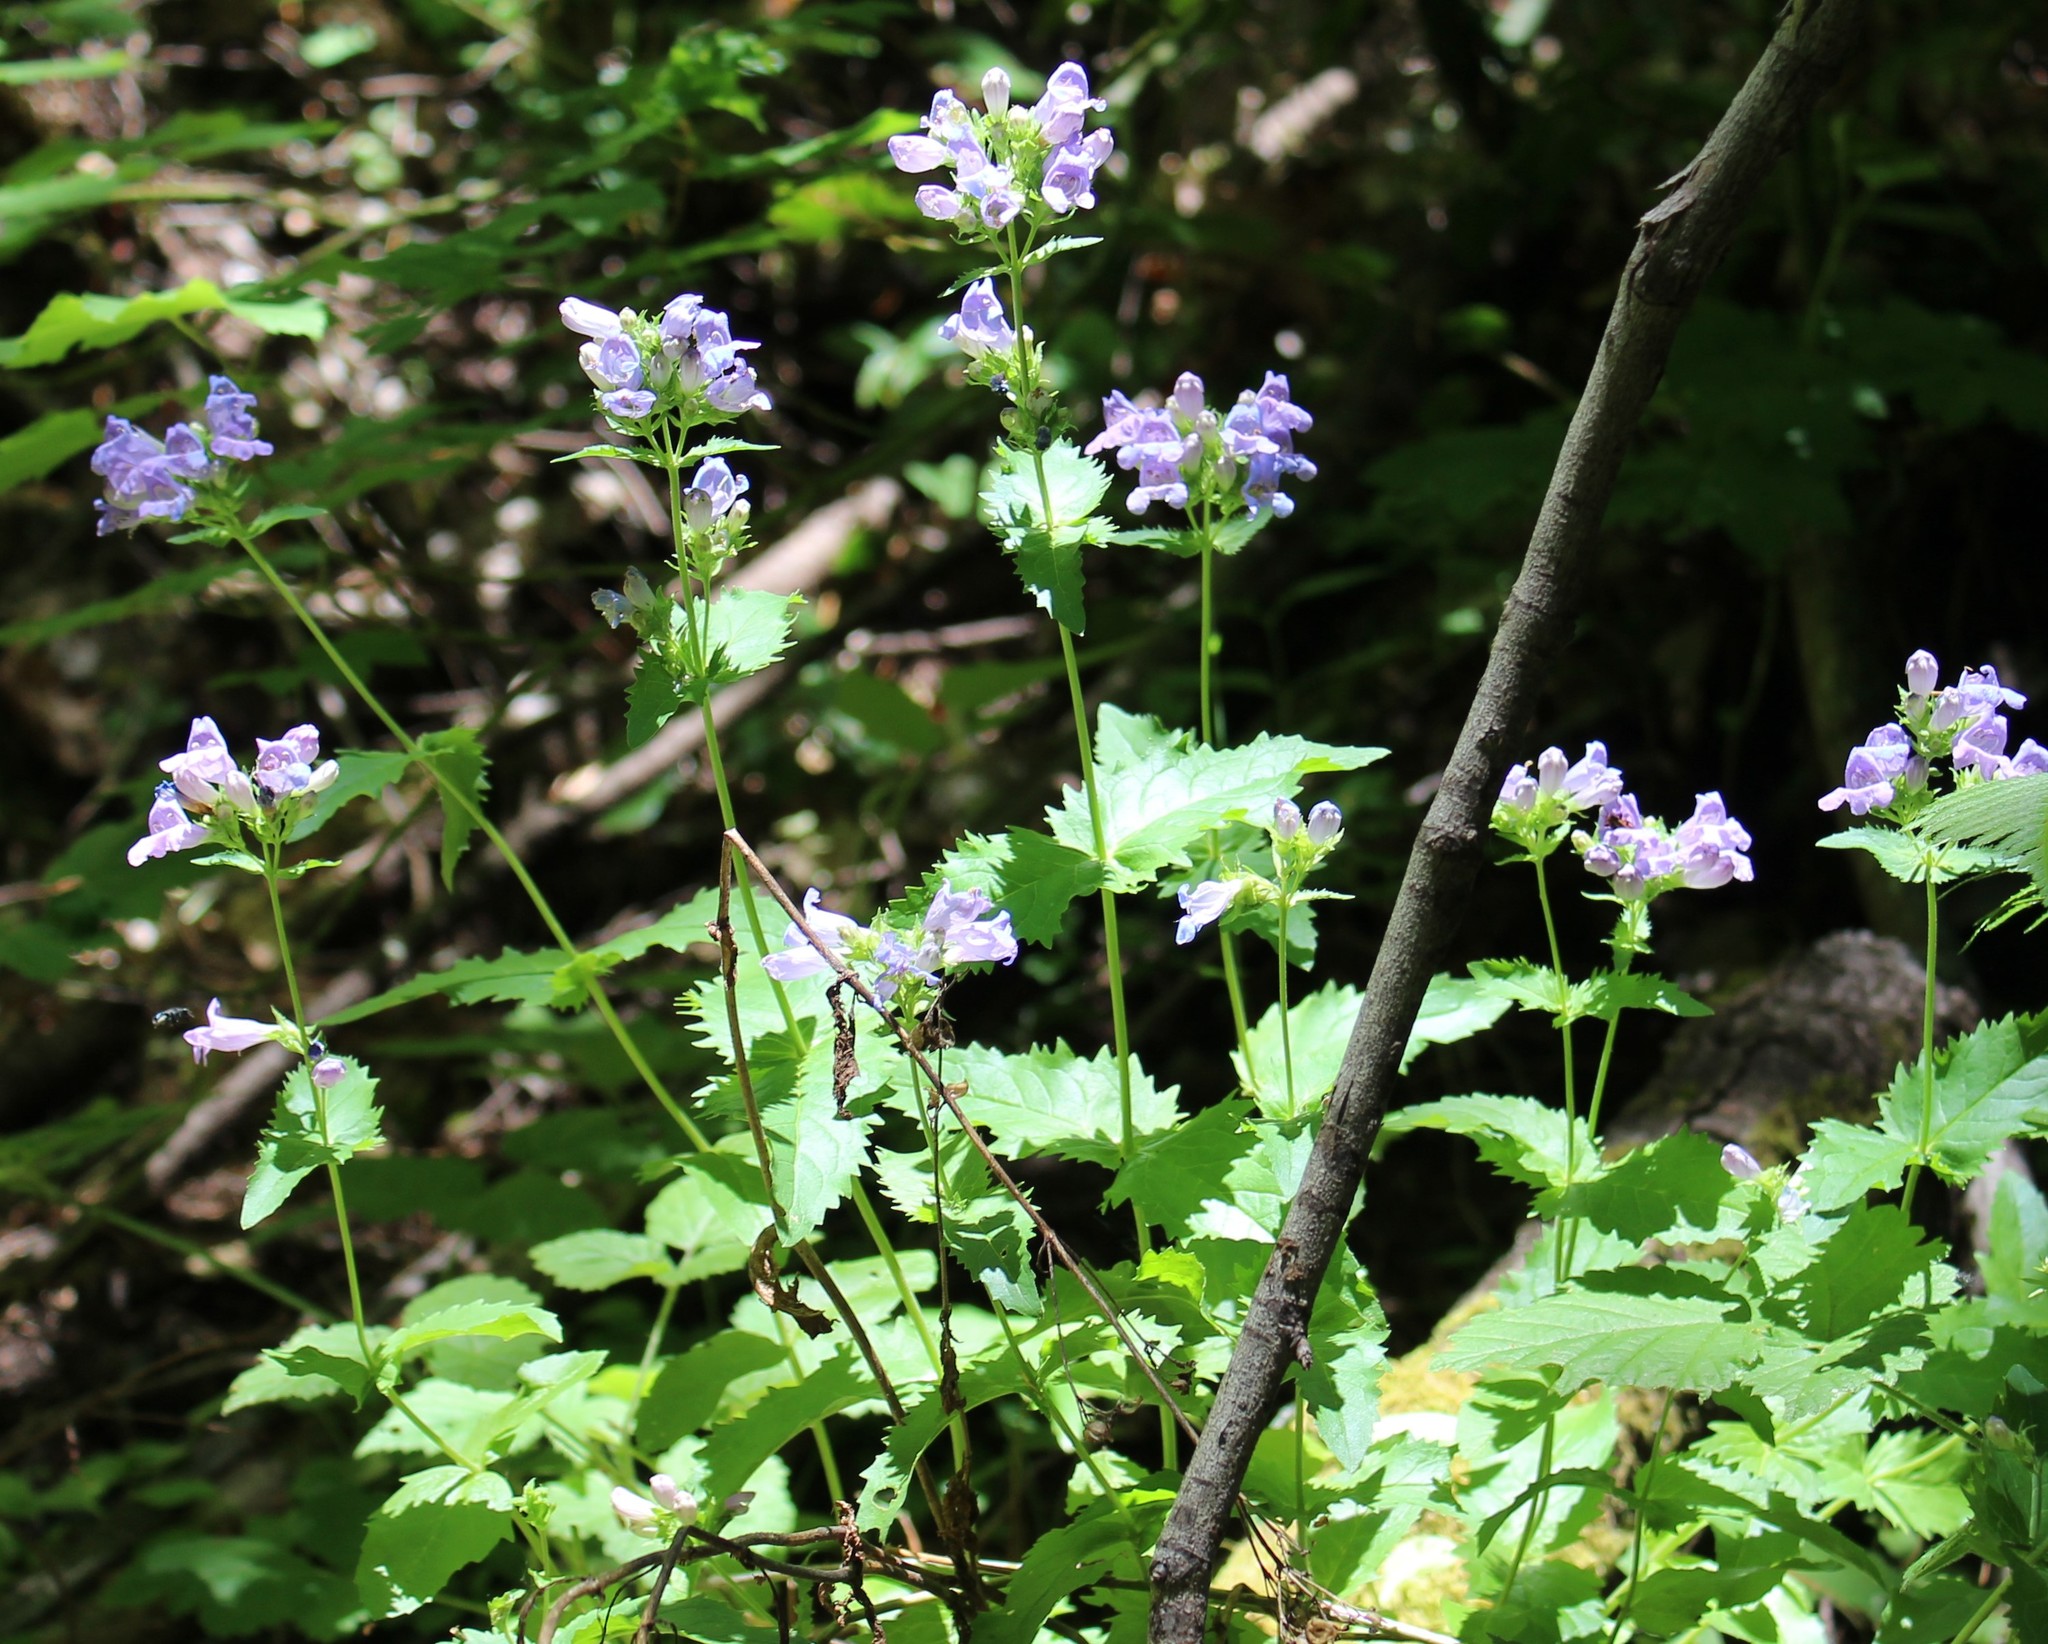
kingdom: Plantae
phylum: Tracheophyta
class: Magnoliopsida
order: Lamiales
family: Plantaginaceae
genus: Penstemon
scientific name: Penstemon serrulatus
